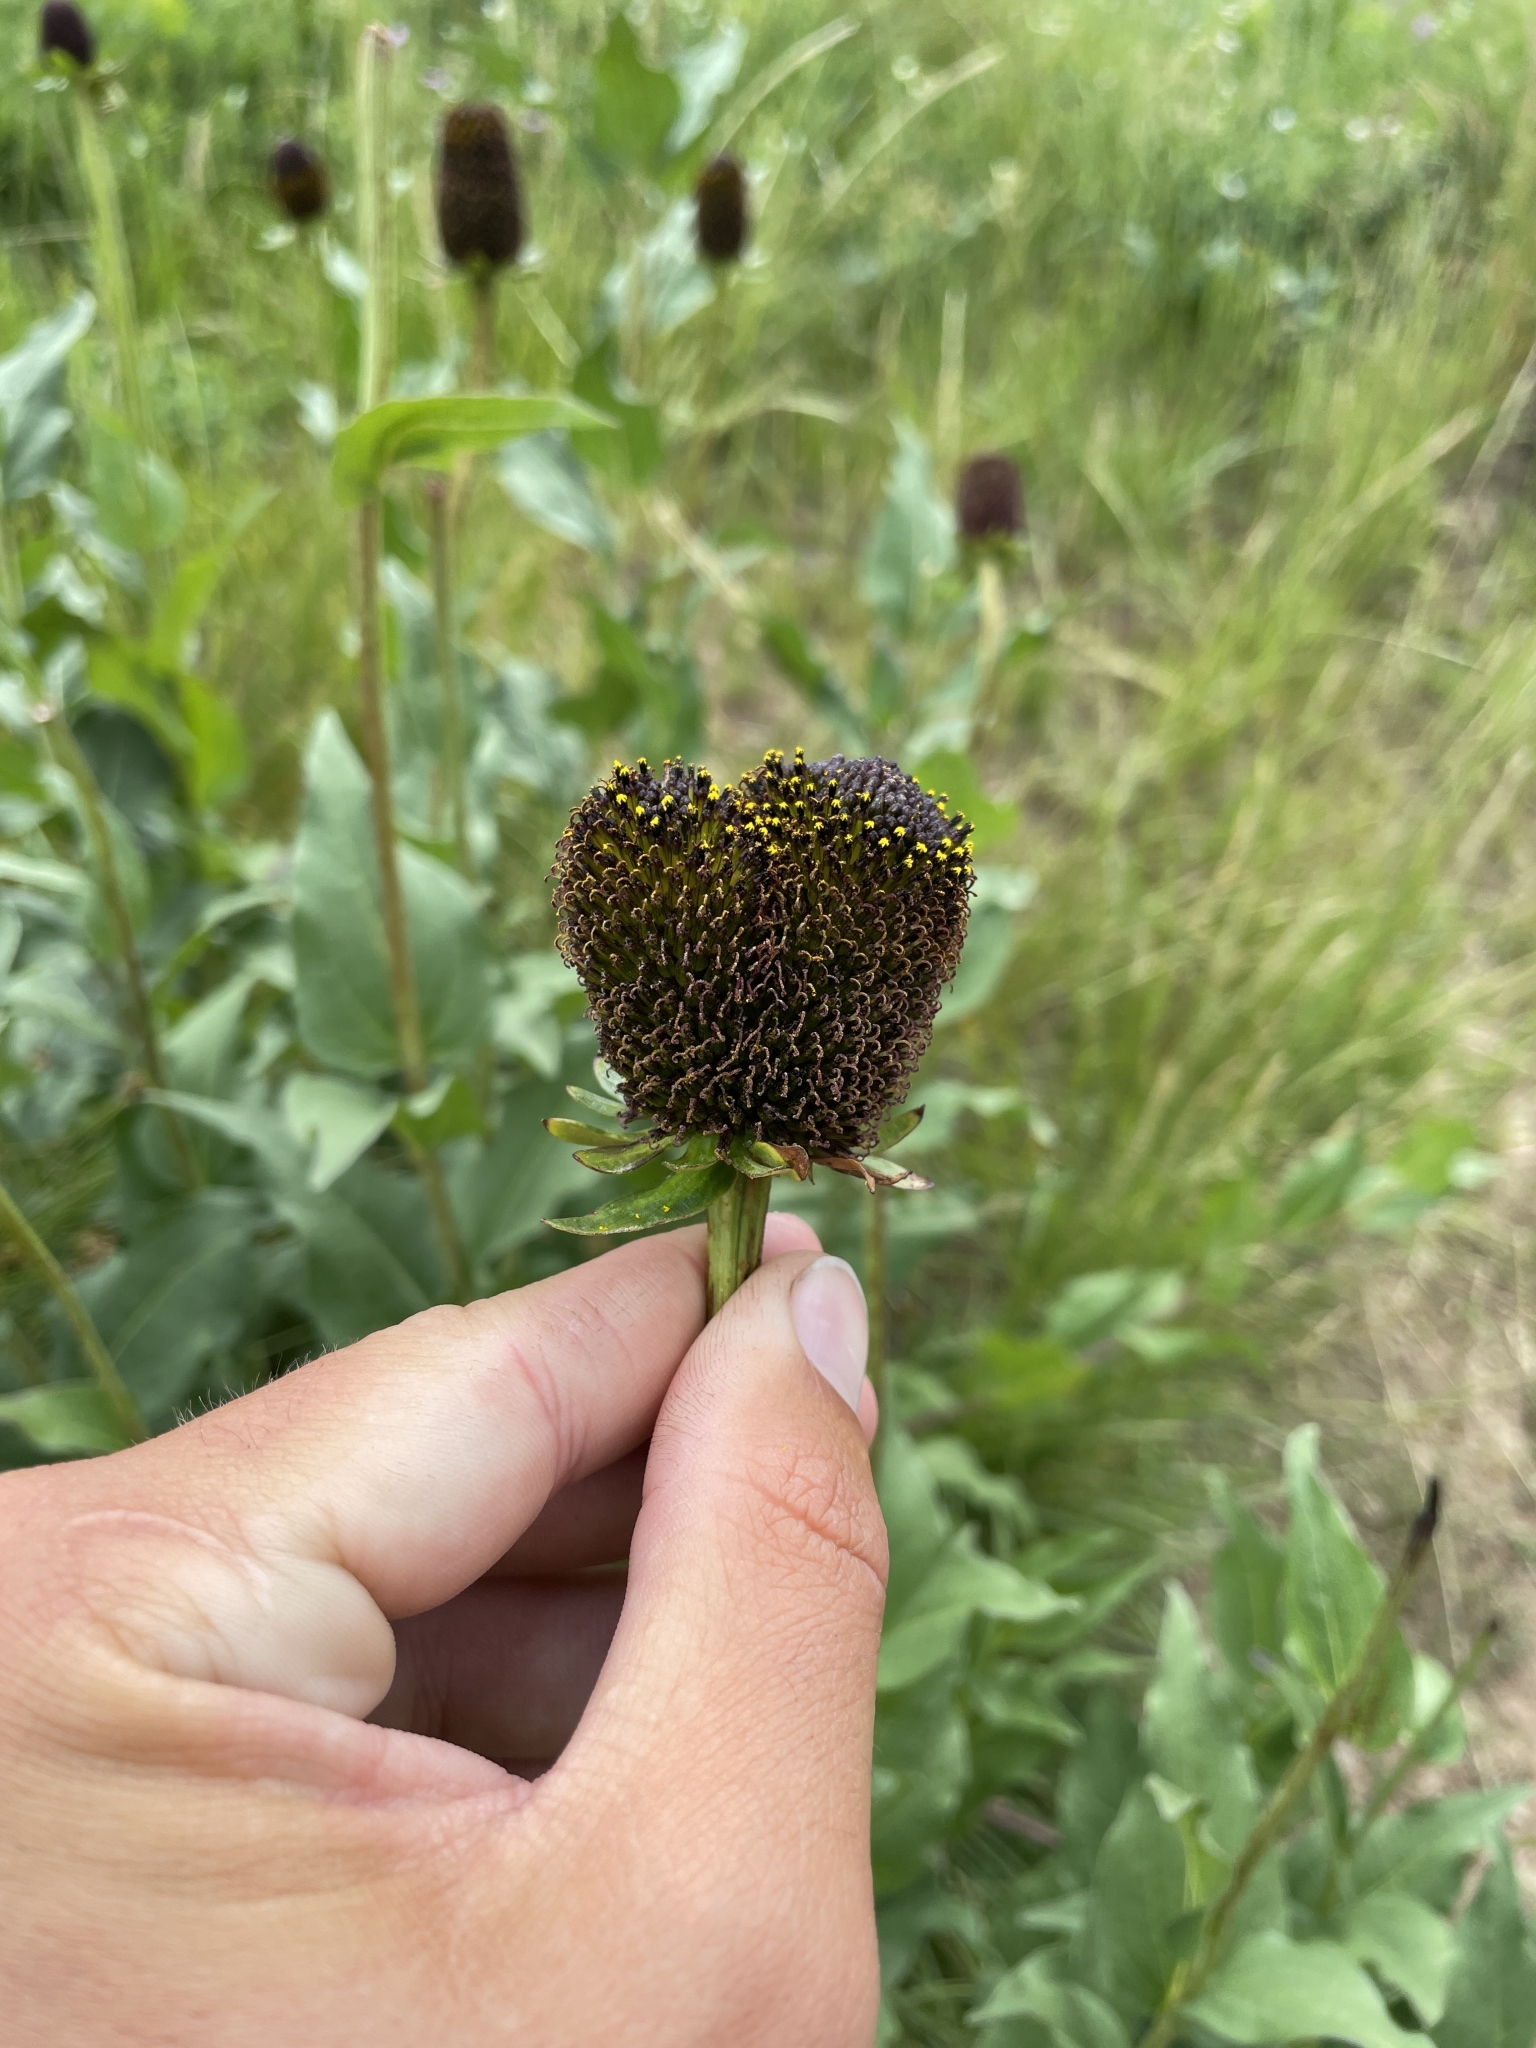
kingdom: Plantae
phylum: Tracheophyta
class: Magnoliopsida
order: Asterales
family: Asteraceae
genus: Rudbeckia
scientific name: Rudbeckia occidentalis
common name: Western coneflower
